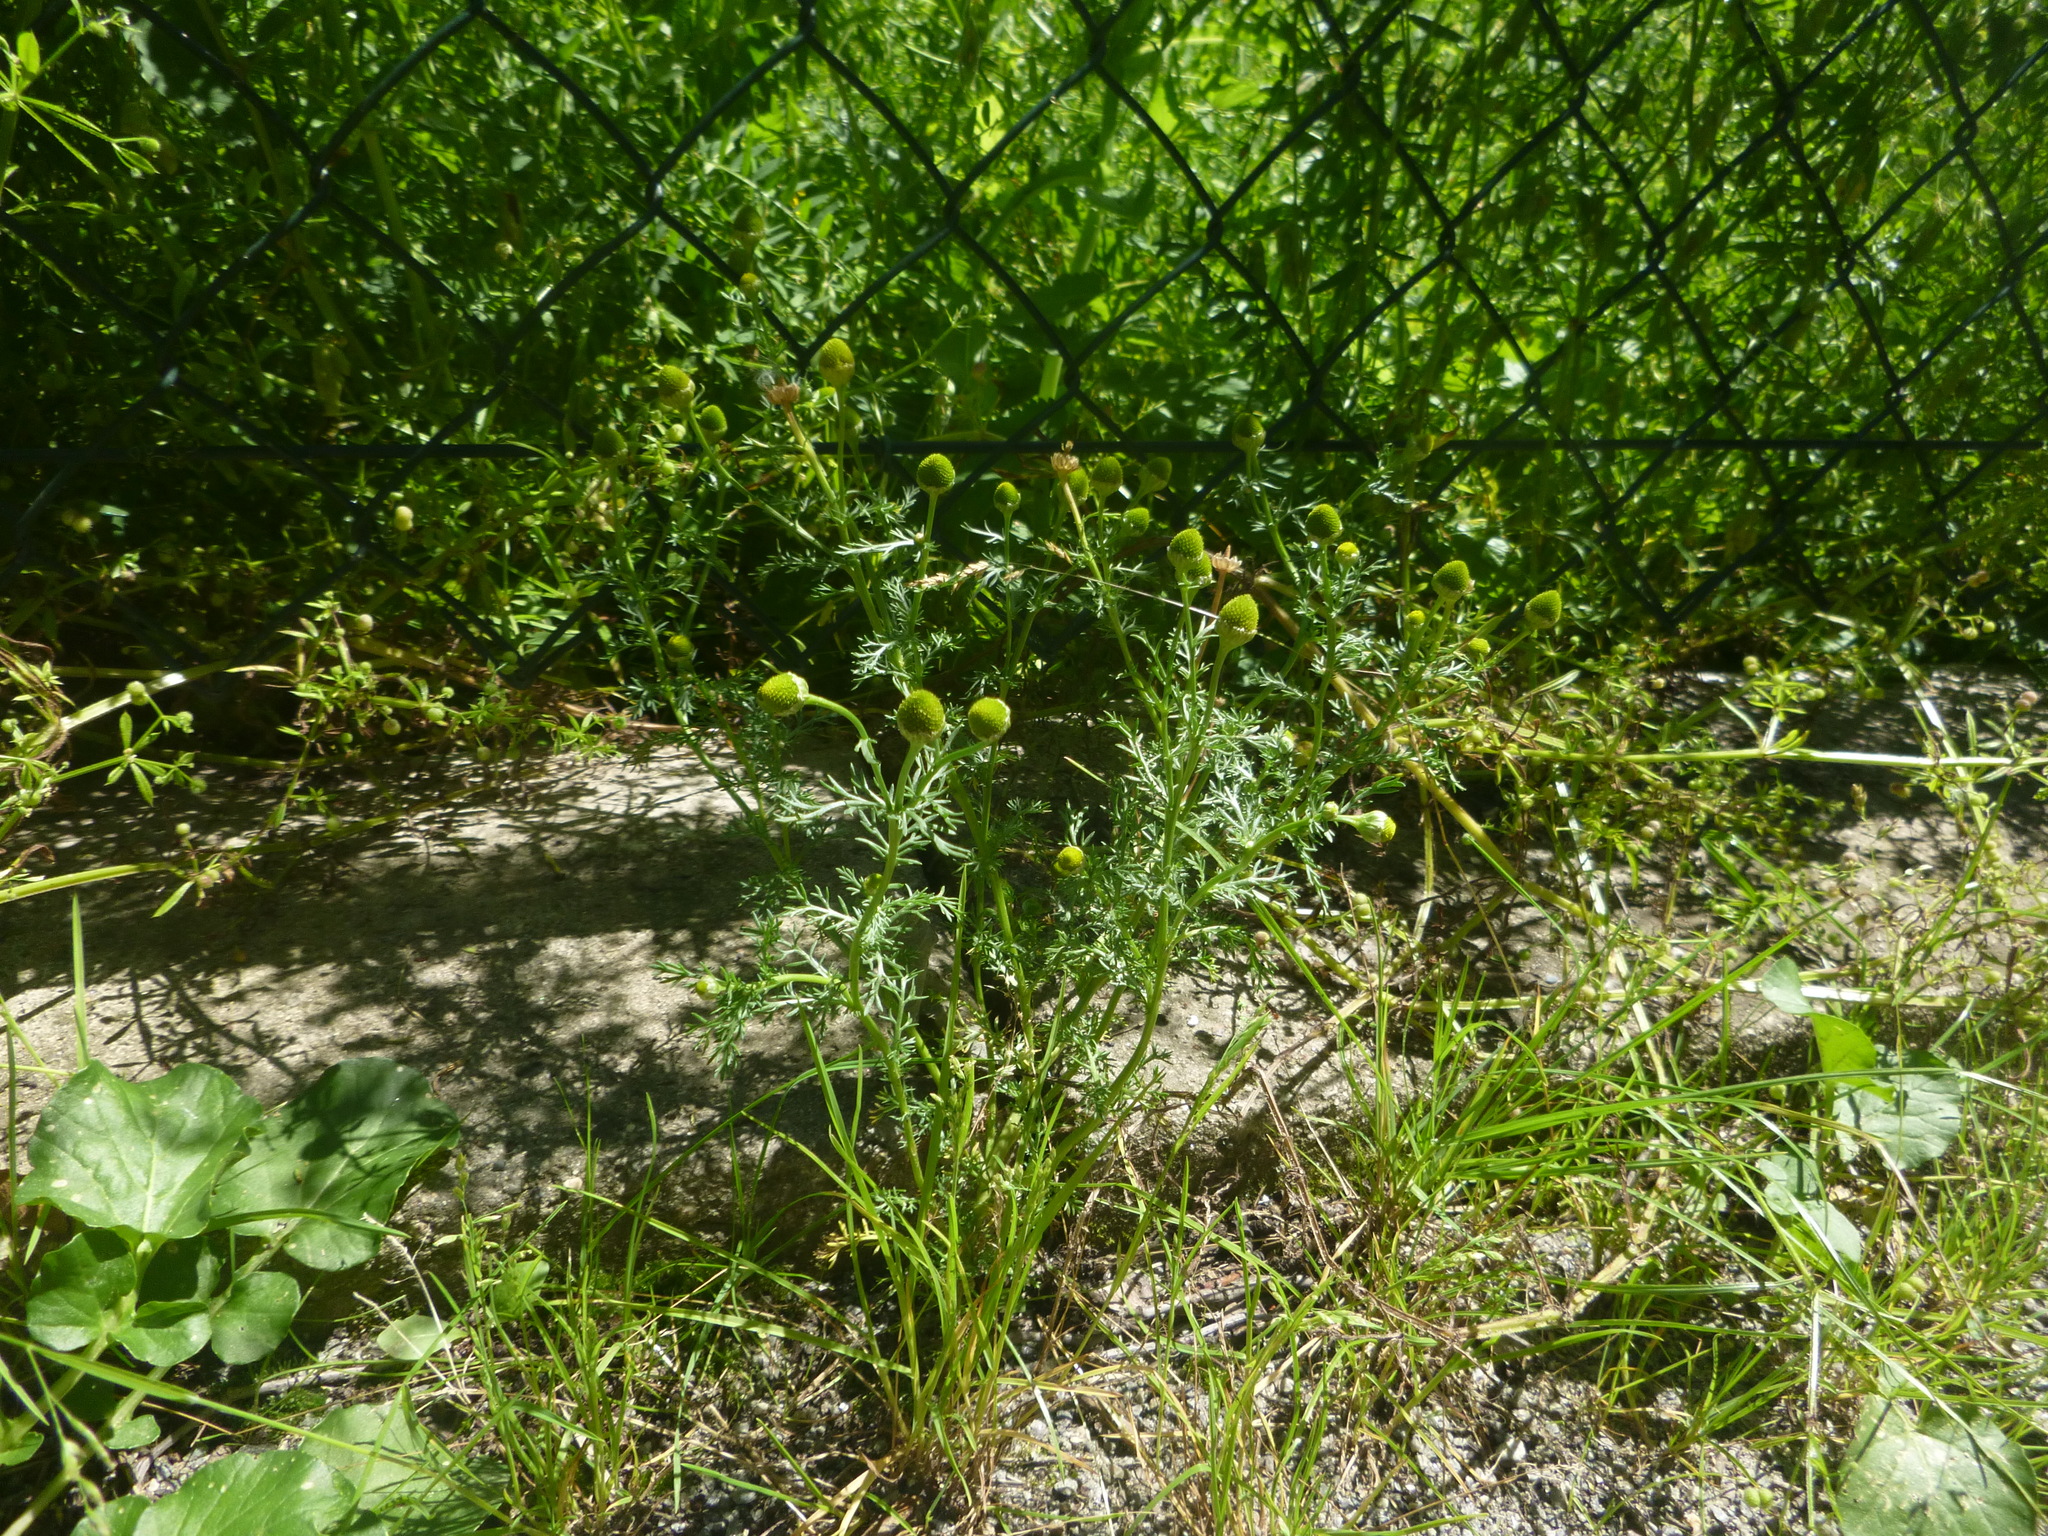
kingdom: Plantae
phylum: Tracheophyta
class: Magnoliopsida
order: Asterales
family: Asteraceae
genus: Matricaria
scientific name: Matricaria discoidea
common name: Disc mayweed
